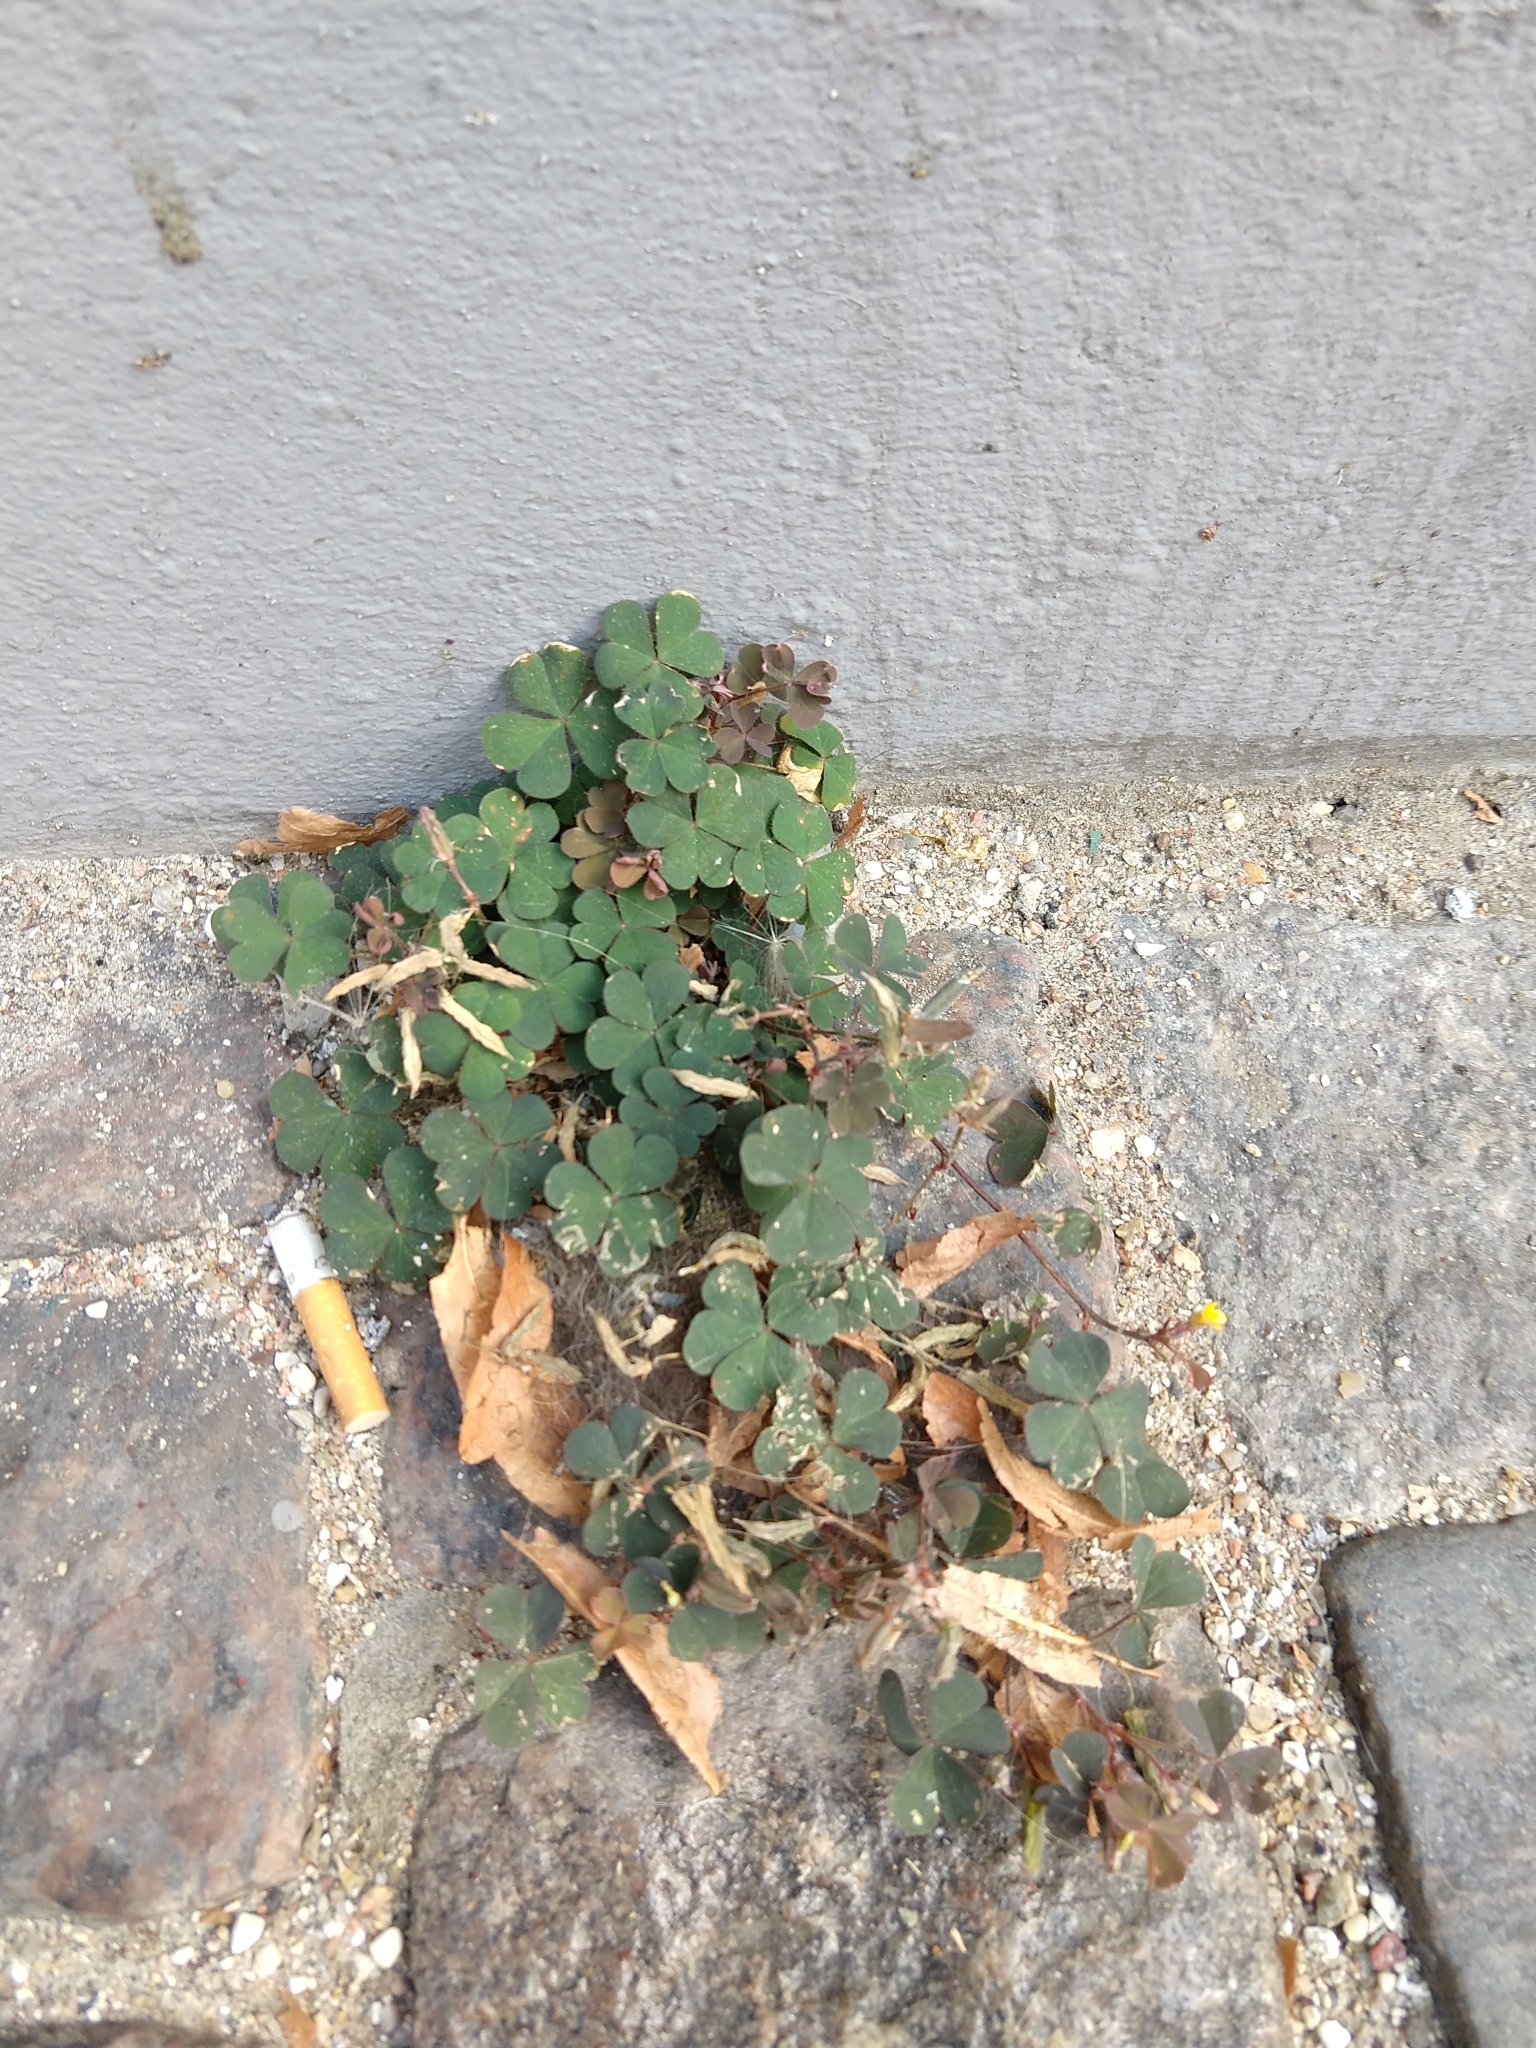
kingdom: Plantae
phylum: Tracheophyta
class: Magnoliopsida
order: Oxalidales
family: Oxalidaceae
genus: Oxalis
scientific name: Oxalis corniculata
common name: Procumbent yellow-sorrel
